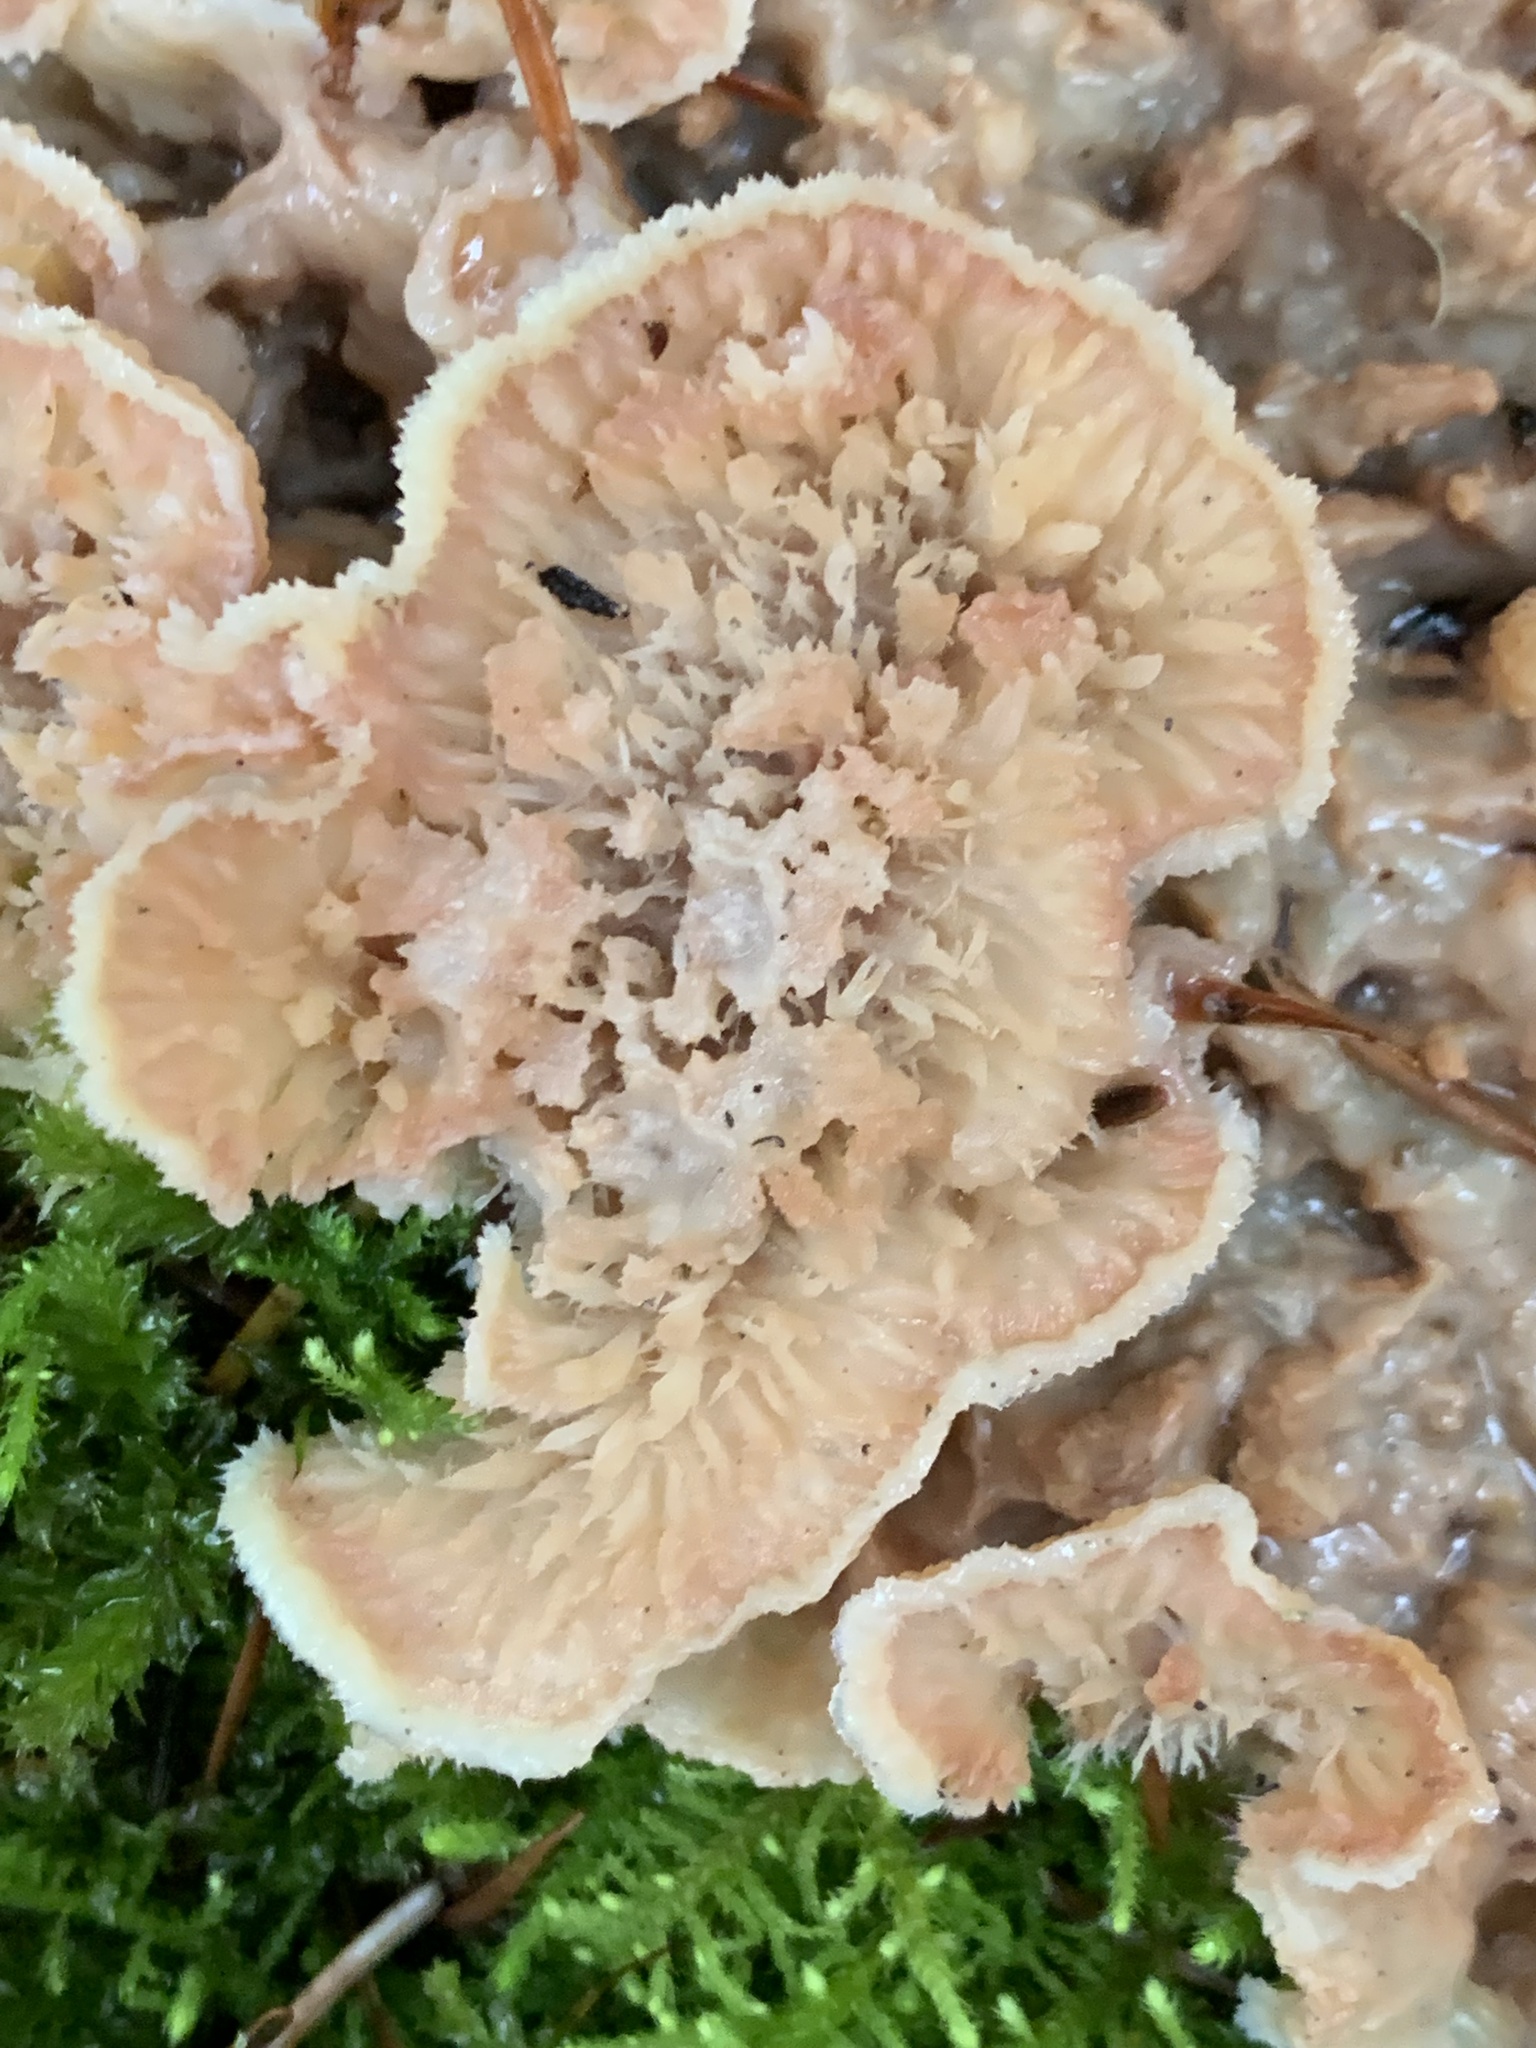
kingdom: Fungi
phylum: Basidiomycota
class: Agaricomycetes
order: Polyporales
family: Meruliaceae
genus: Phlebia
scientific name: Phlebia tremellosa
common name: Jelly rot
